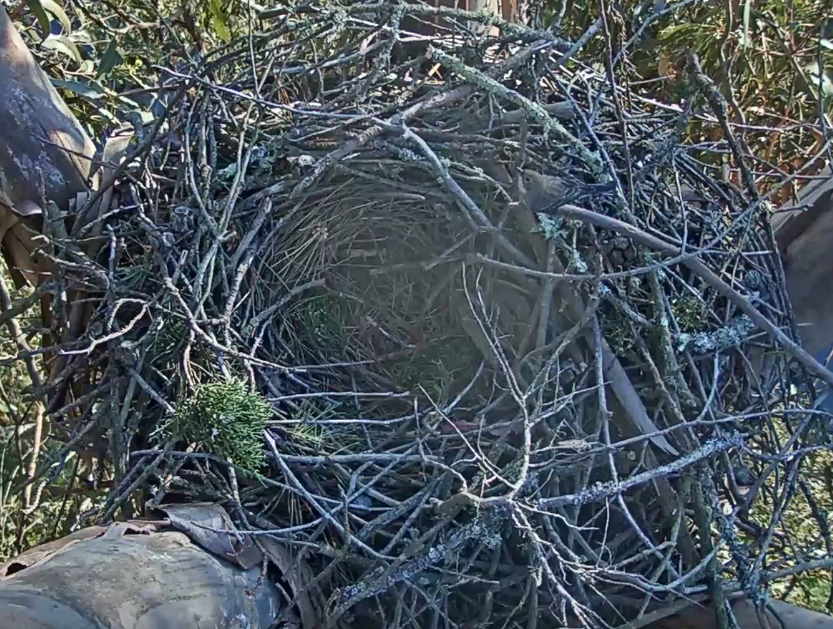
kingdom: Animalia
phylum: Chordata
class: Aves
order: Passeriformes
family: Parulidae
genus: Setophaga
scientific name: Setophaga coronata
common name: Myrtle warbler
